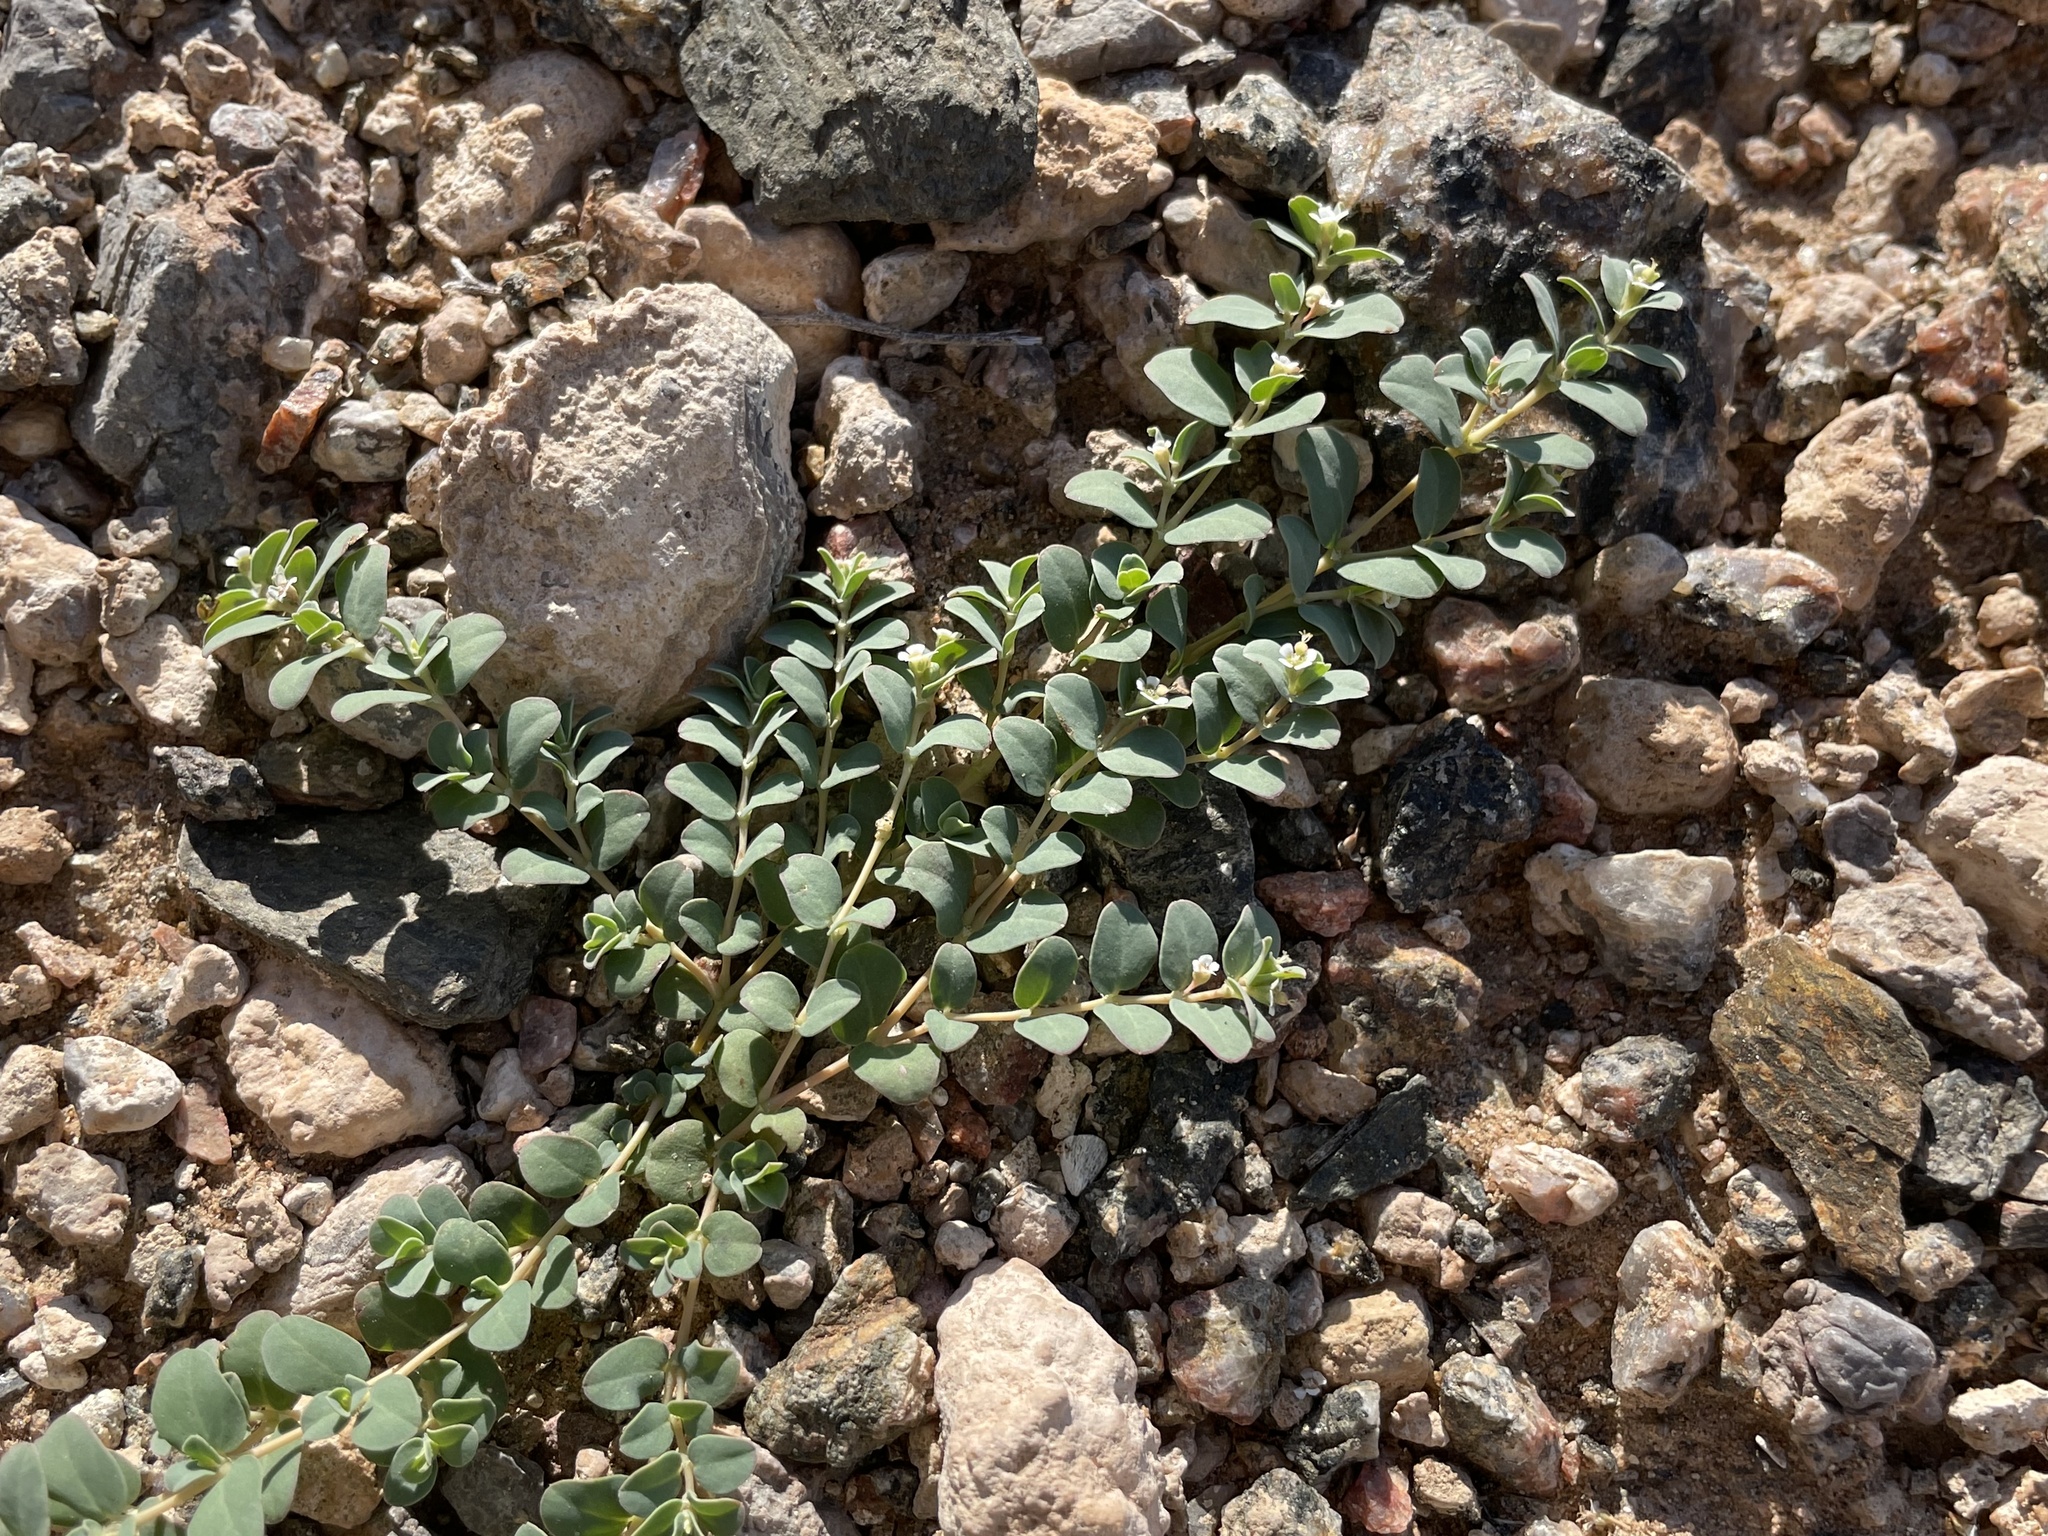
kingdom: Plantae
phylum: Tracheophyta
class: Magnoliopsida
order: Malpighiales
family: Euphorbiaceae
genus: Euphorbia
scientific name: Euphorbia albomarginata
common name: Whitemargin sandmat
